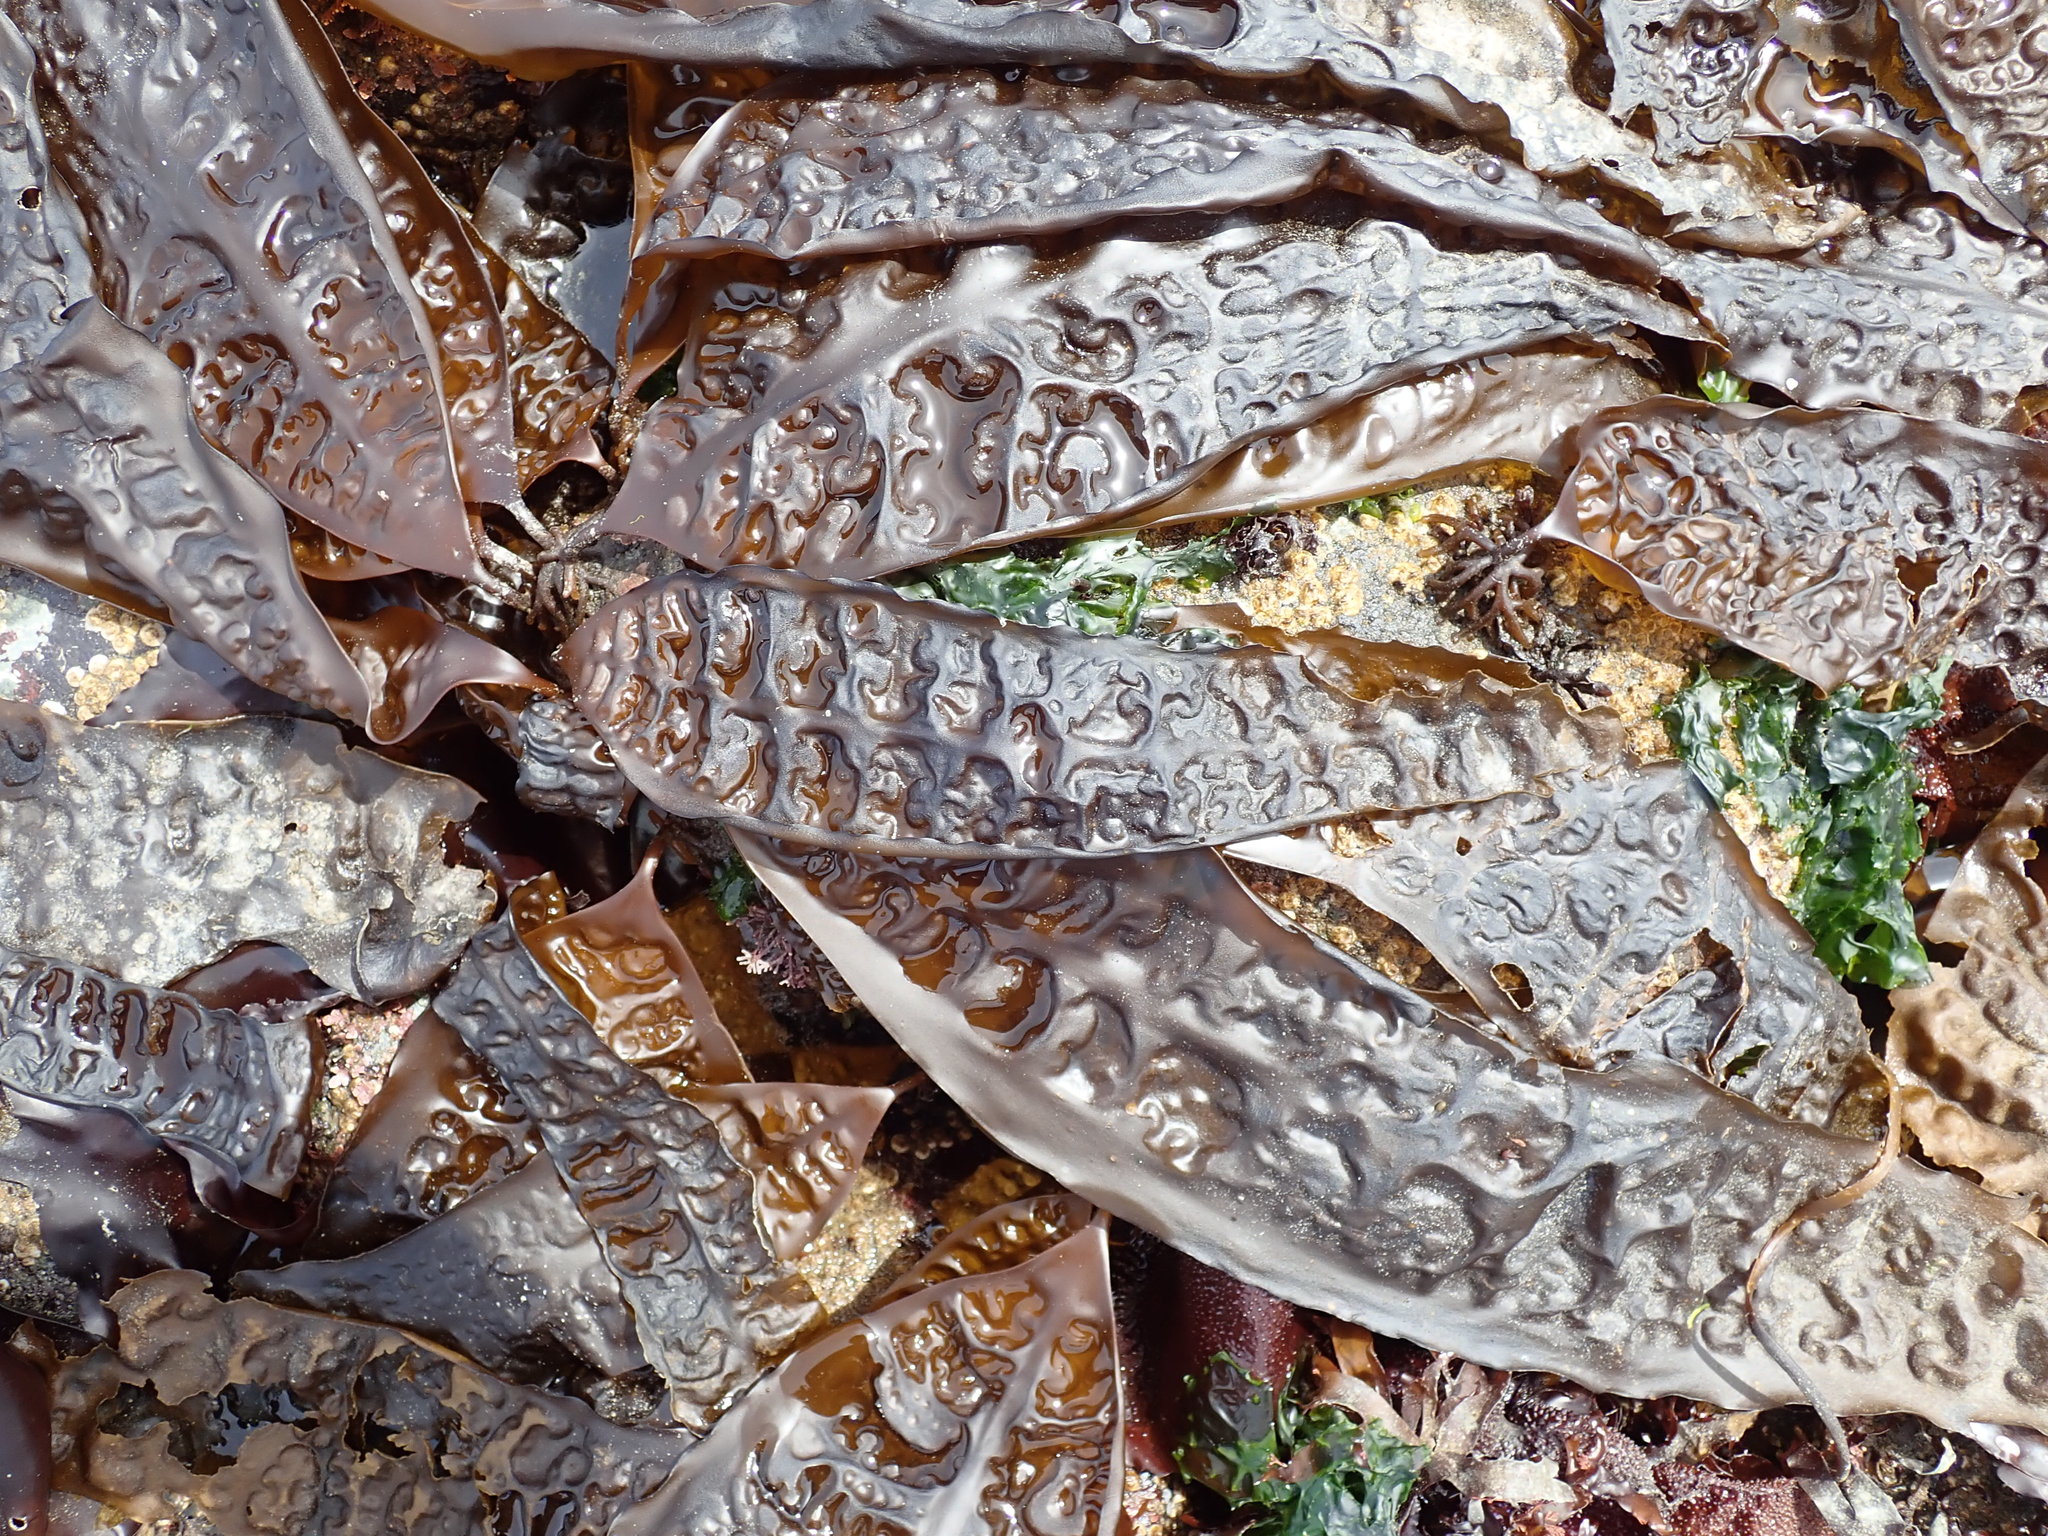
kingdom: Chromista
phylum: Ochrophyta
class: Phaeophyceae
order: Laminariales
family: Laminariaceae
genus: Saccharina
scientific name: Saccharina latissima
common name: Poor man's weather glass
